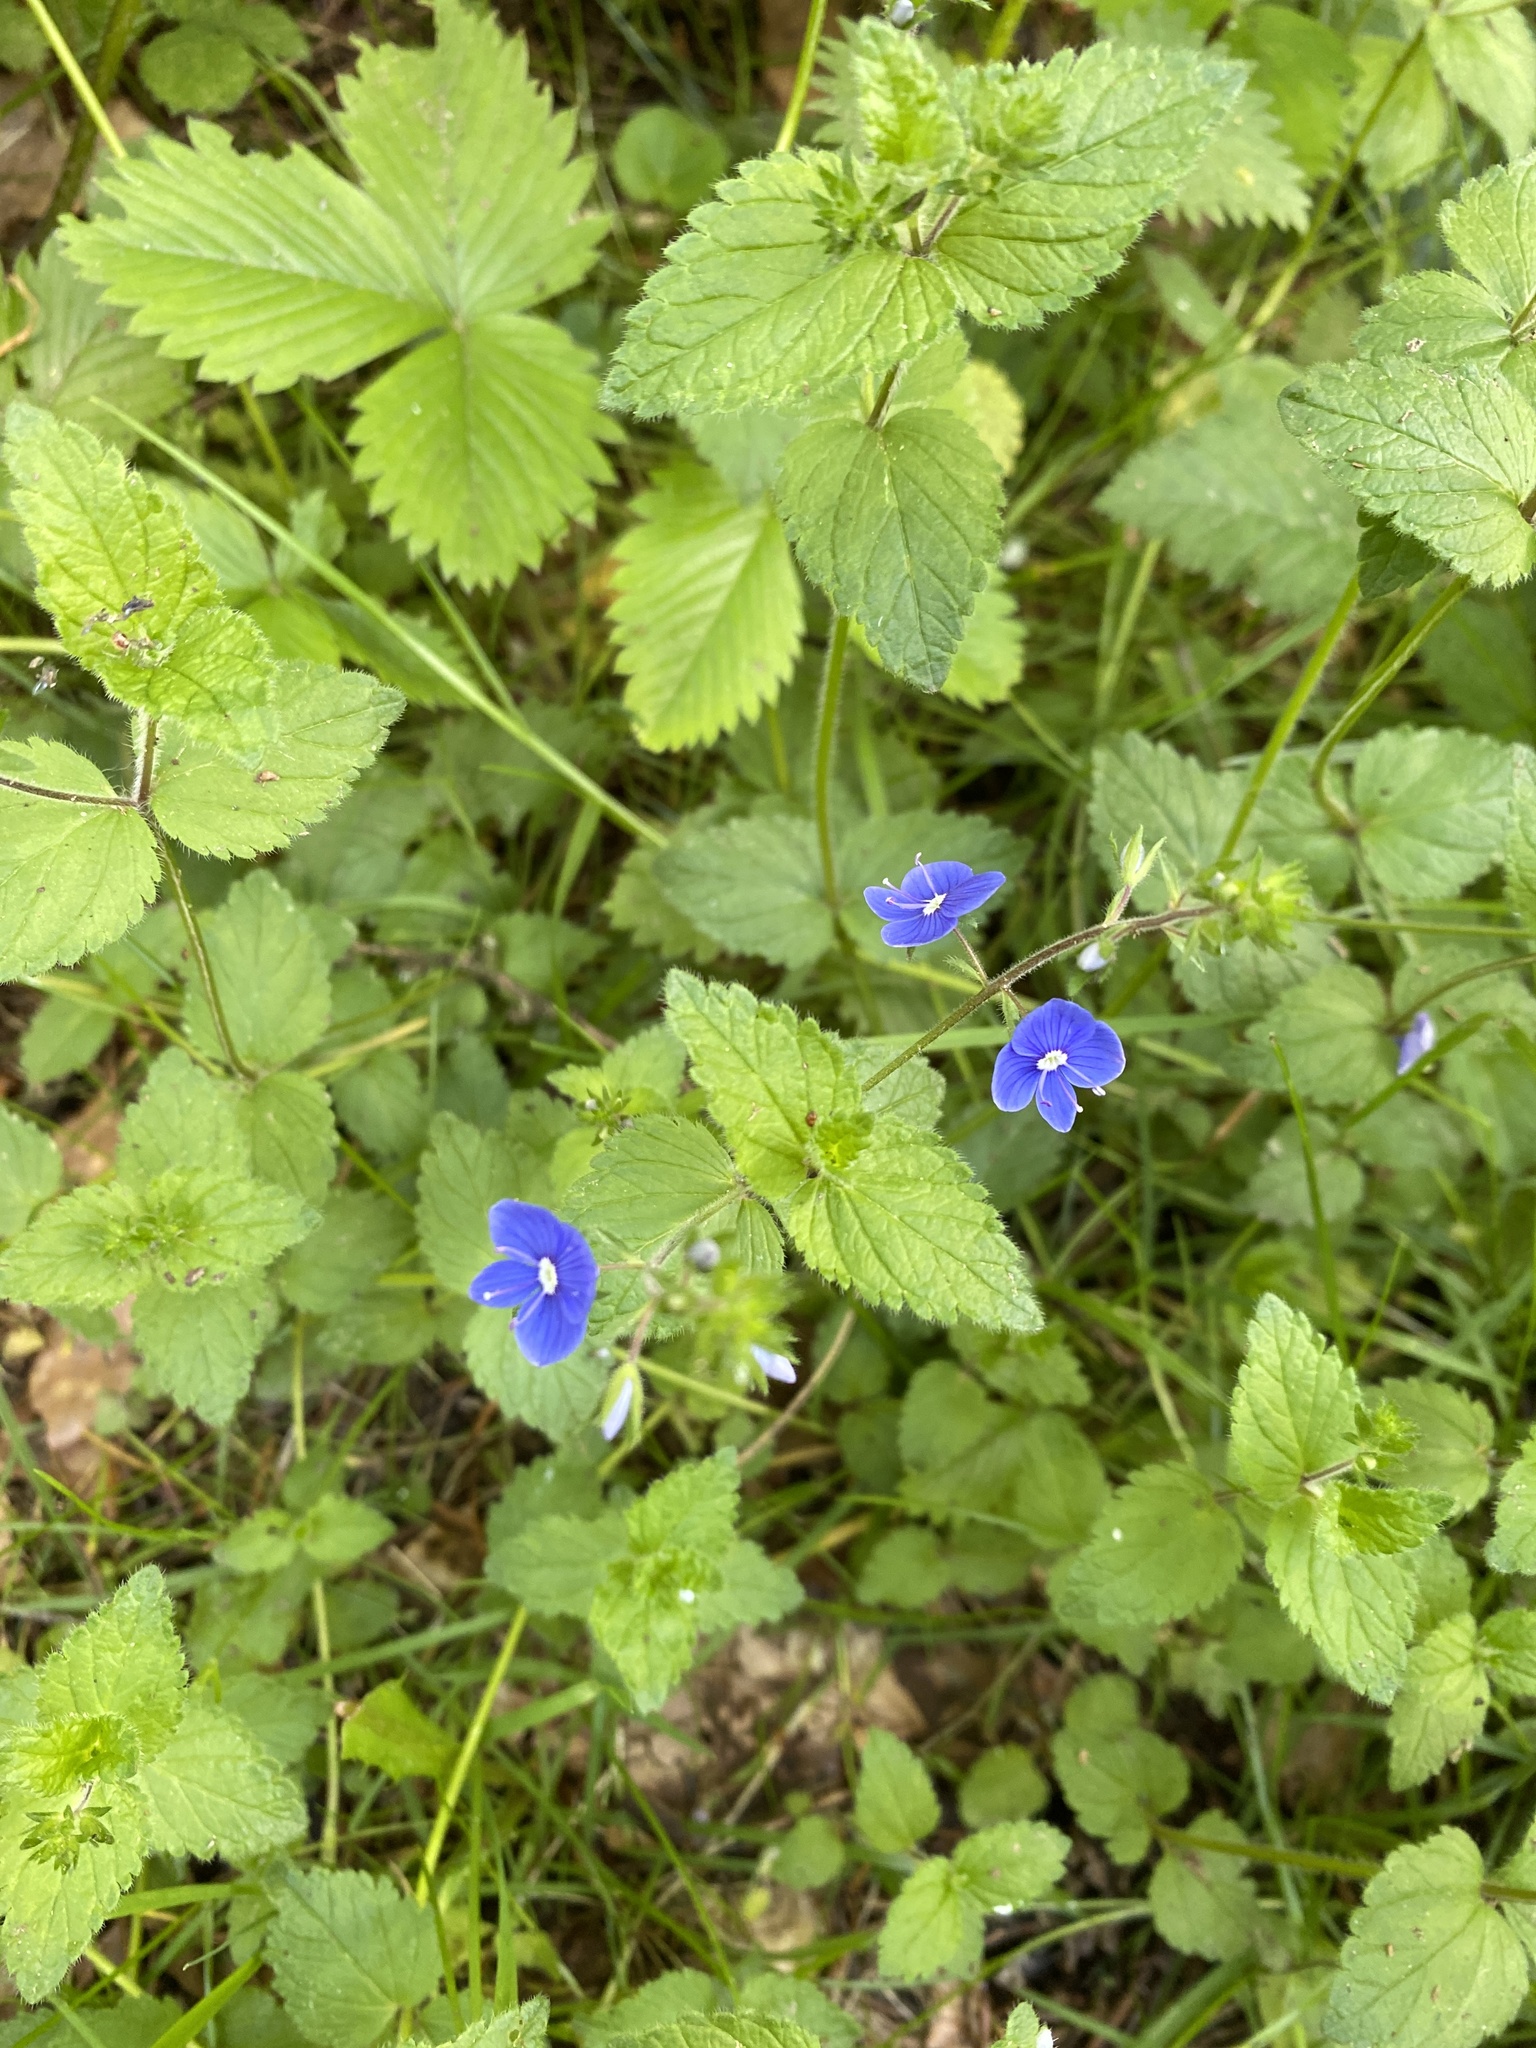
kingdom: Plantae
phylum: Tracheophyta
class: Magnoliopsida
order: Lamiales
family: Plantaginaceae
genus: Veronica
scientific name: Veronica chamaedrys
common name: Germander speedwell
